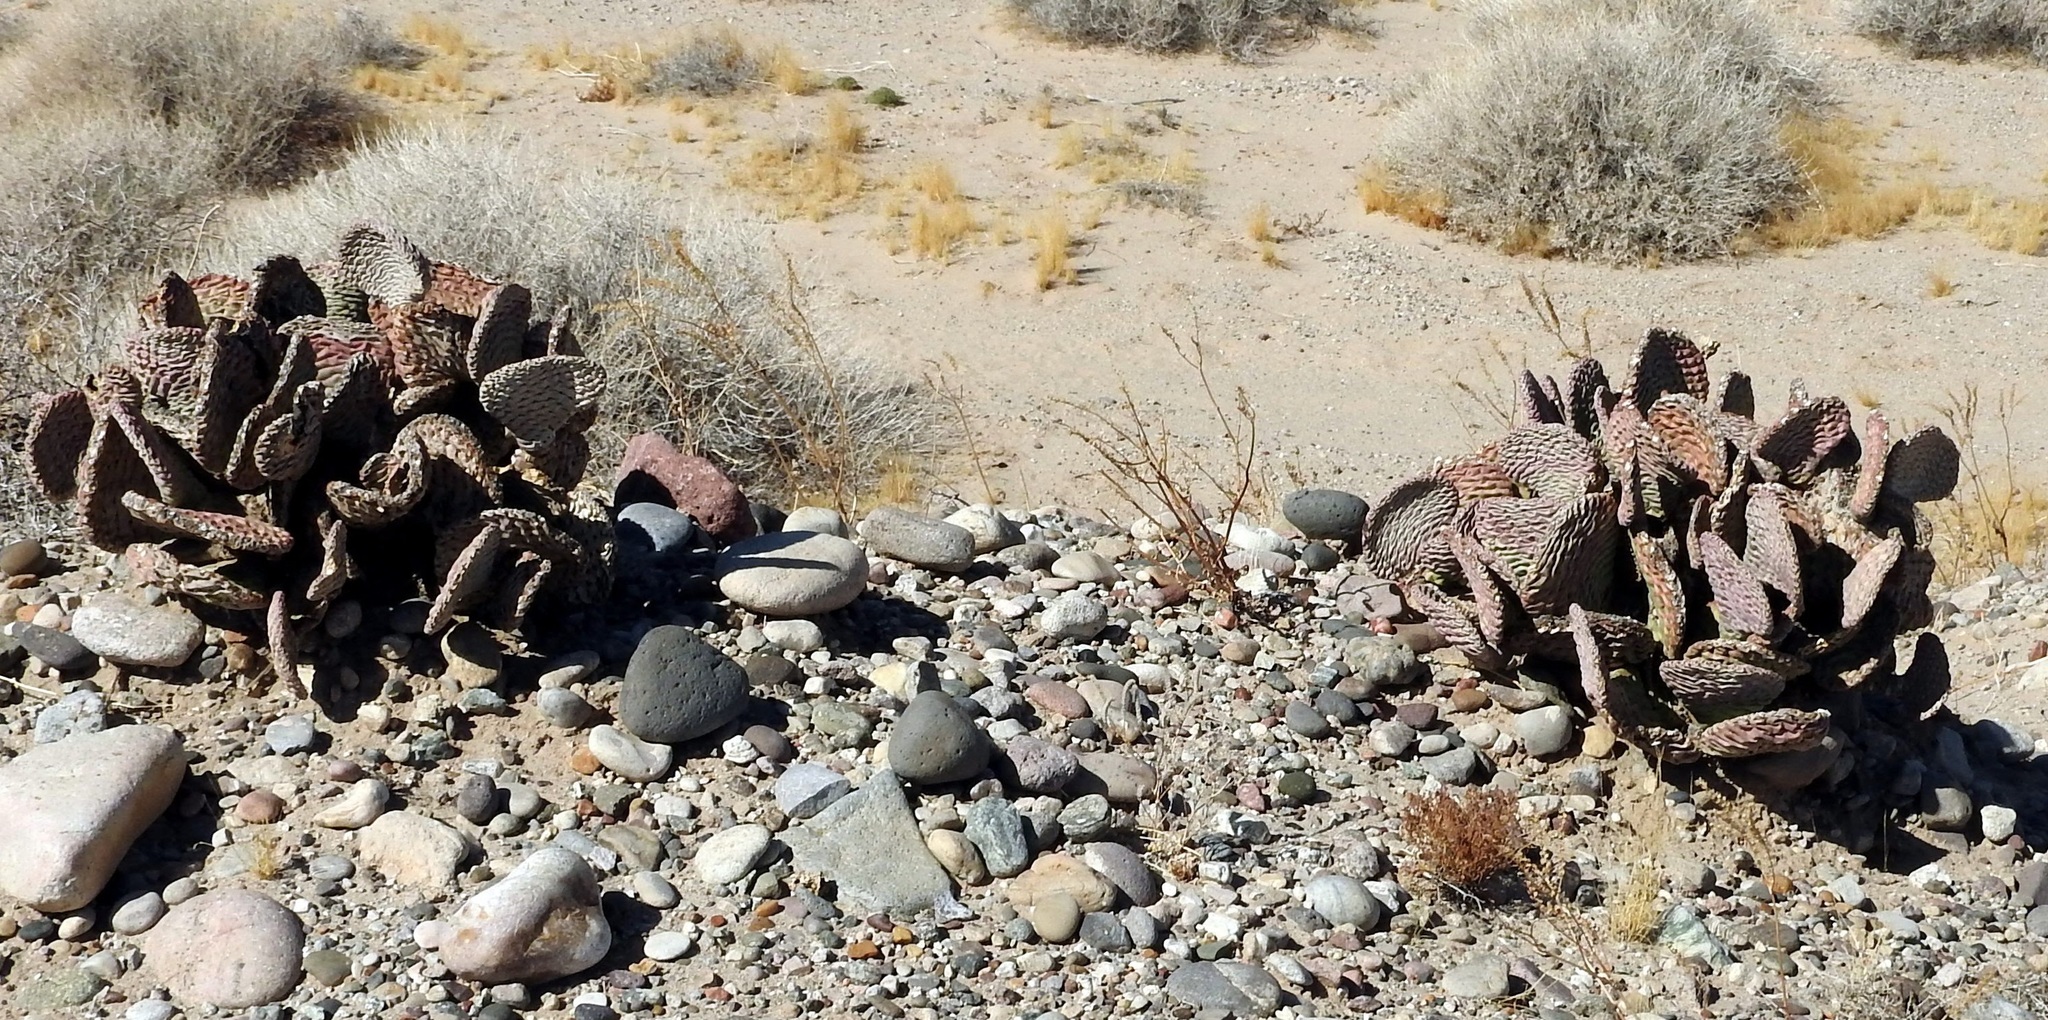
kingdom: Plantae
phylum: Tracheophyta
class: Magnoliopsida
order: Caryophyllales
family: Cactaceae
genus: Opuntia
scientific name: Opuntia basilaris
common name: Beavertail prickly-pear
